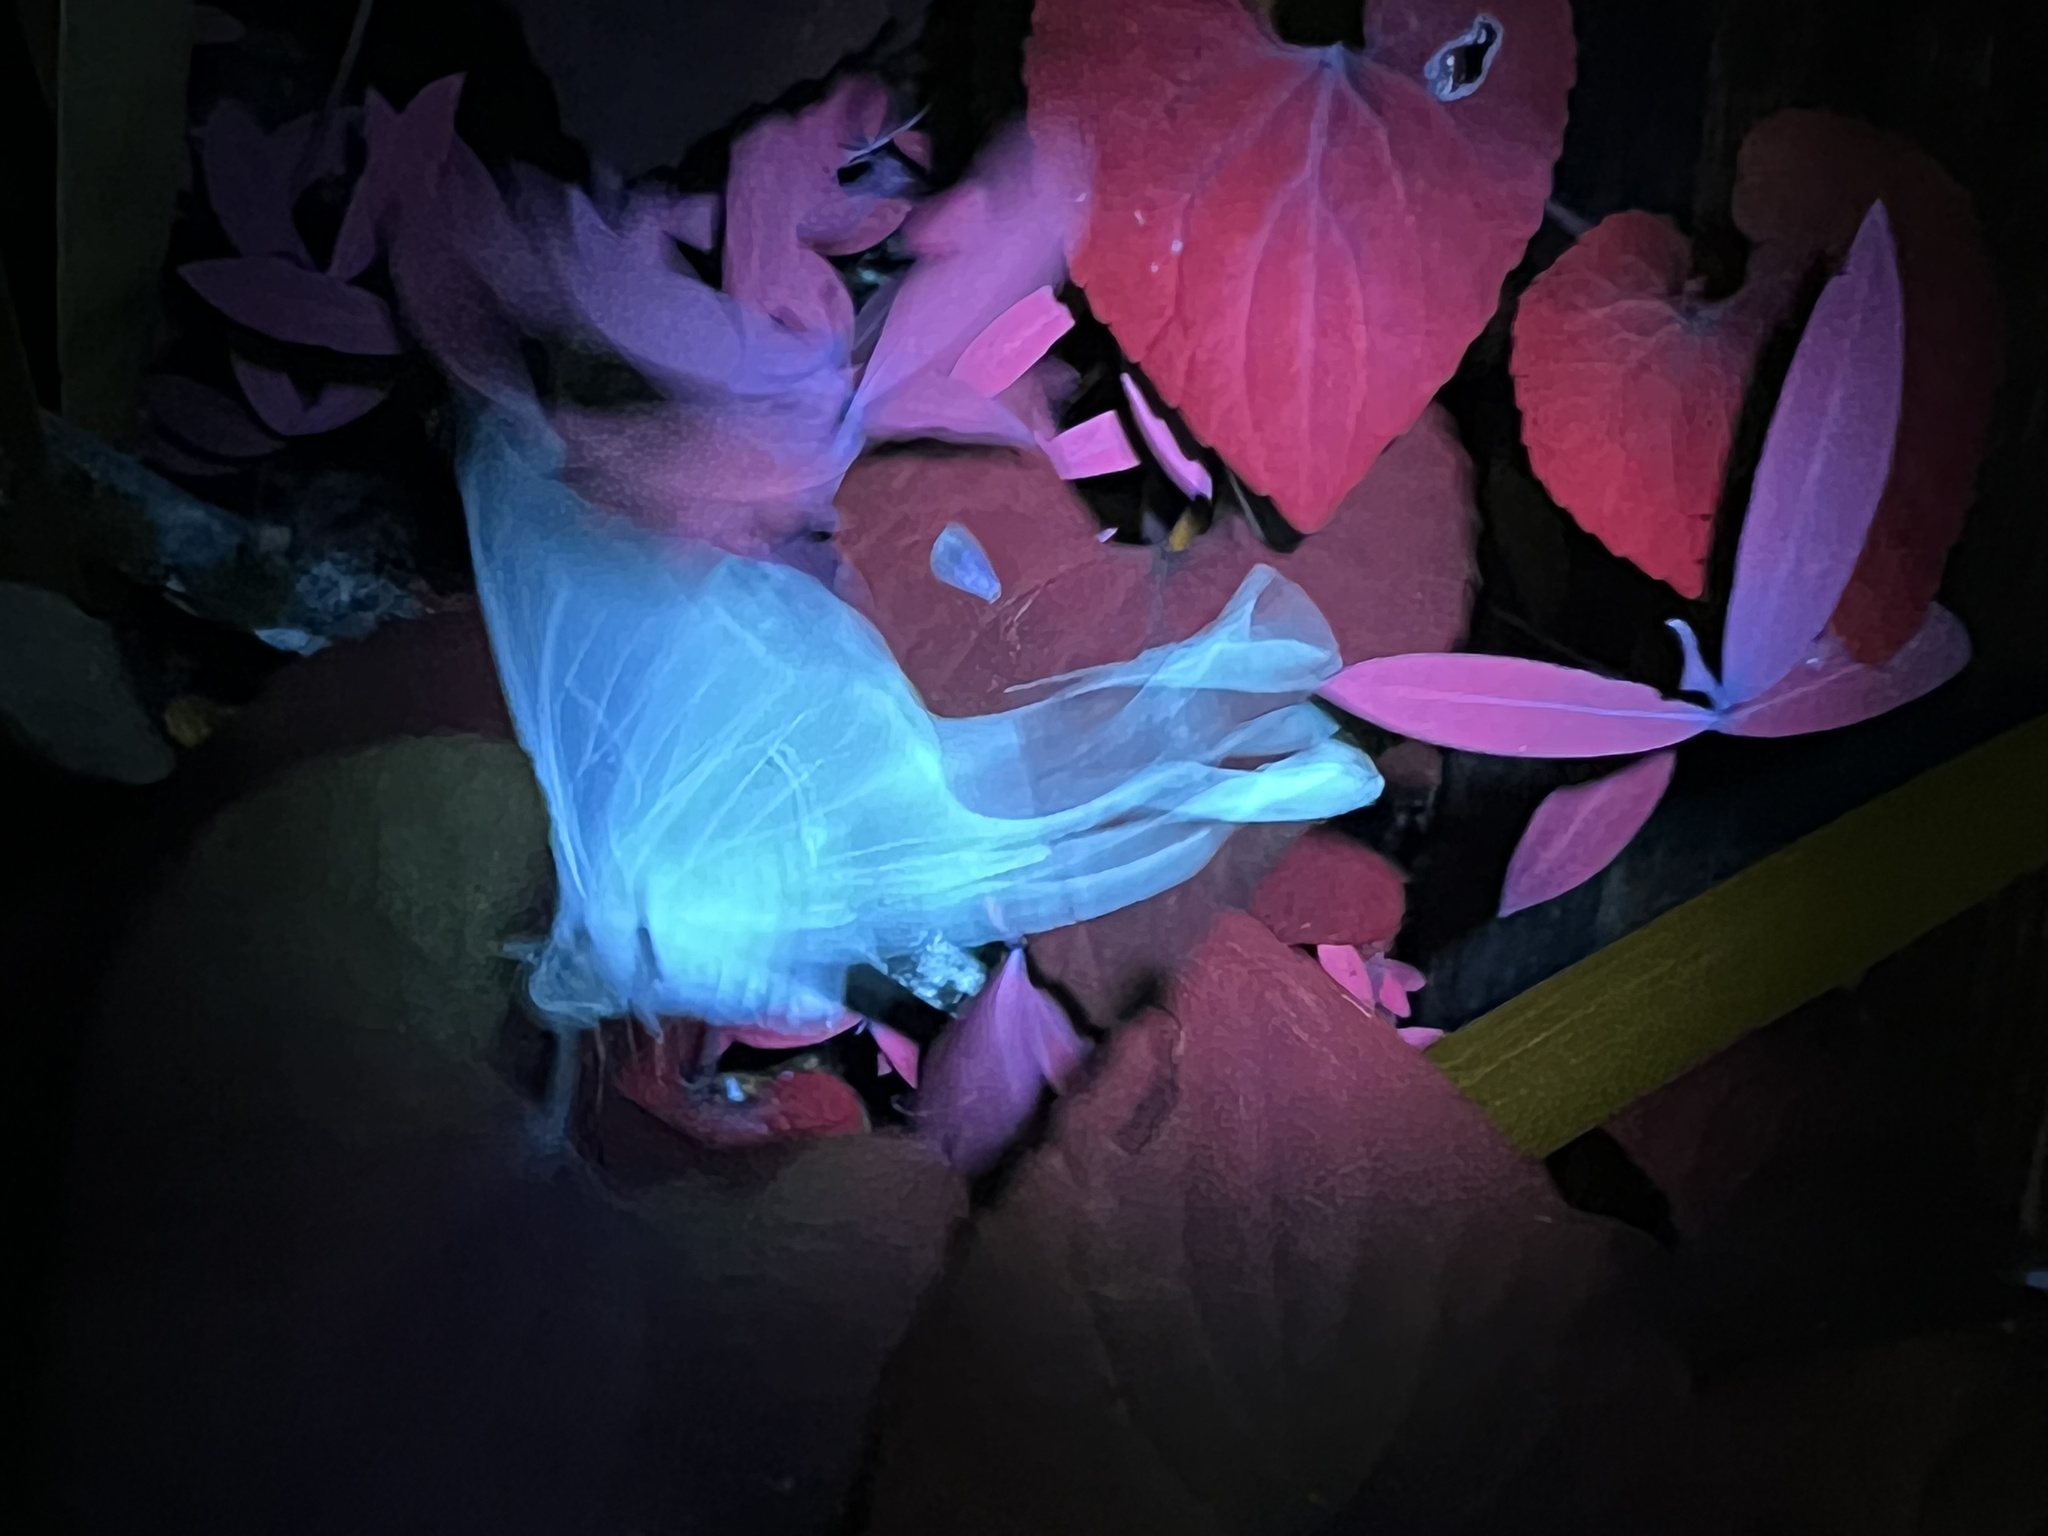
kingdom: Animalia
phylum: Arthropoda
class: Insecta
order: Lepidoptera
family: Saturniidae
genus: Actias
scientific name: Actias luna
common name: Luna moth
